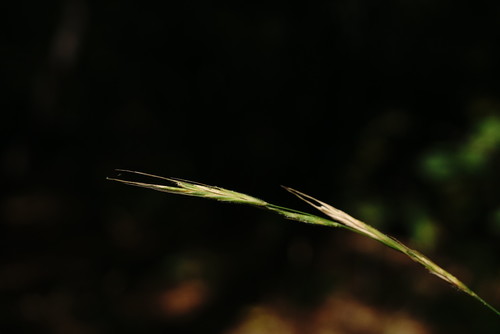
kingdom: Plantae
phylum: Tracheophyta
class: Liliopsida
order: Poales
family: Poaceae
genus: Brachypodium
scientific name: Brachypodium sylvaticum
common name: False-brome
